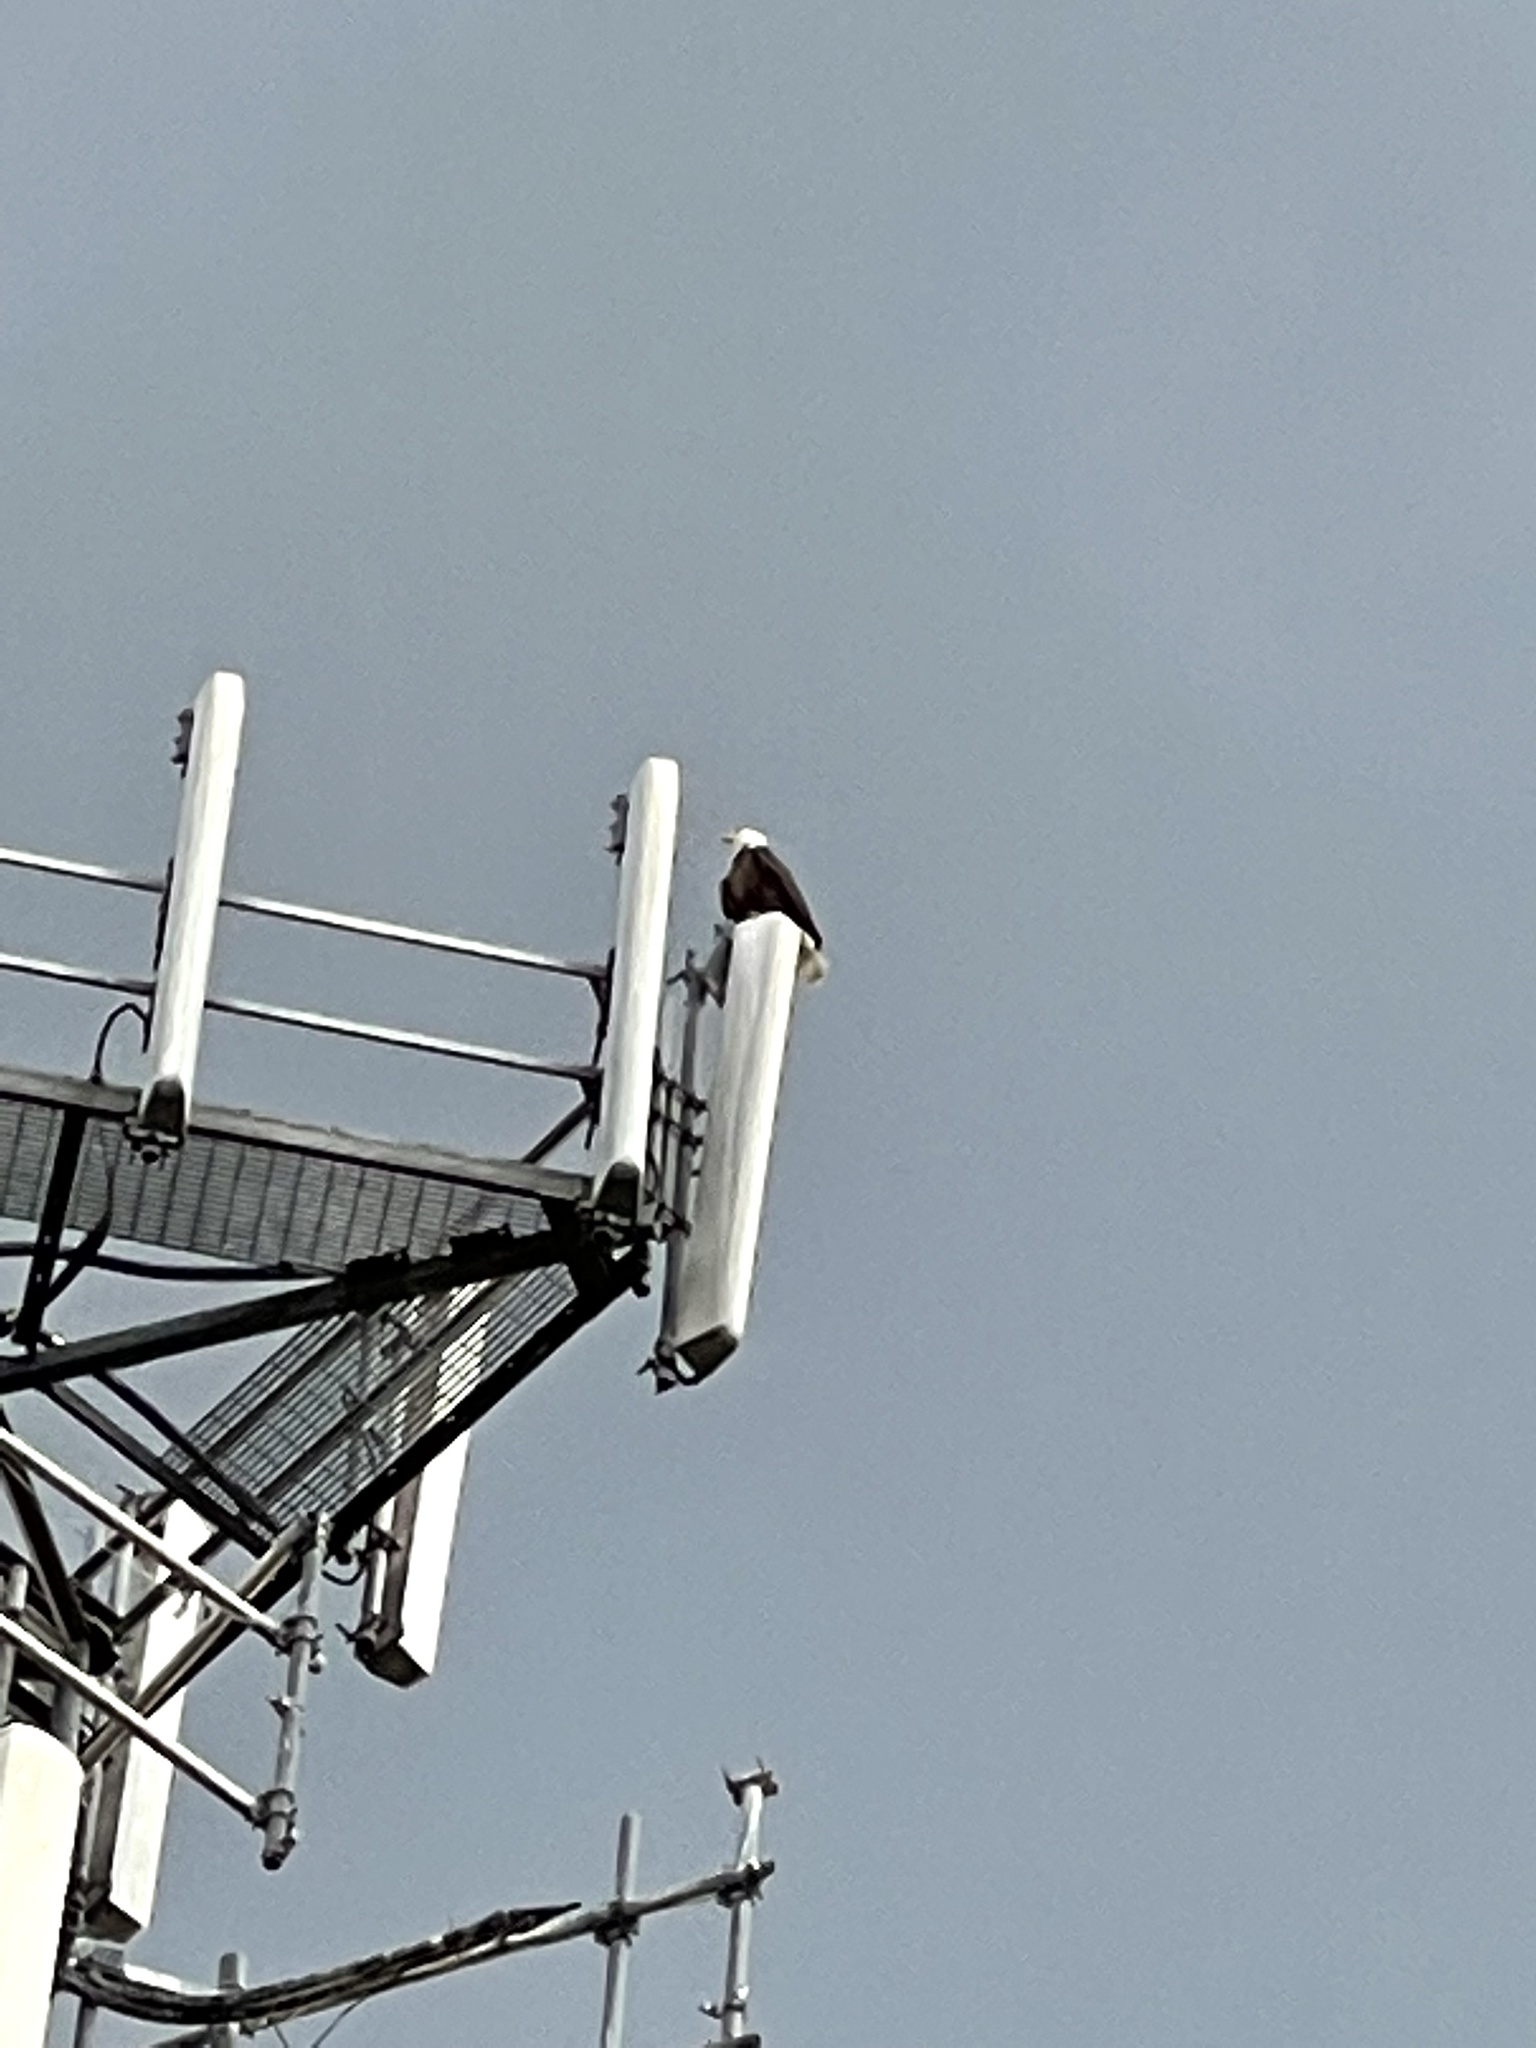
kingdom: Animalia
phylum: Chordata
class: Aves
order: Accipitriformes
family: Accipitridae
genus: Haliaeetus
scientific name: Haliaeetus leucocephalus
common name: Bald eagle
